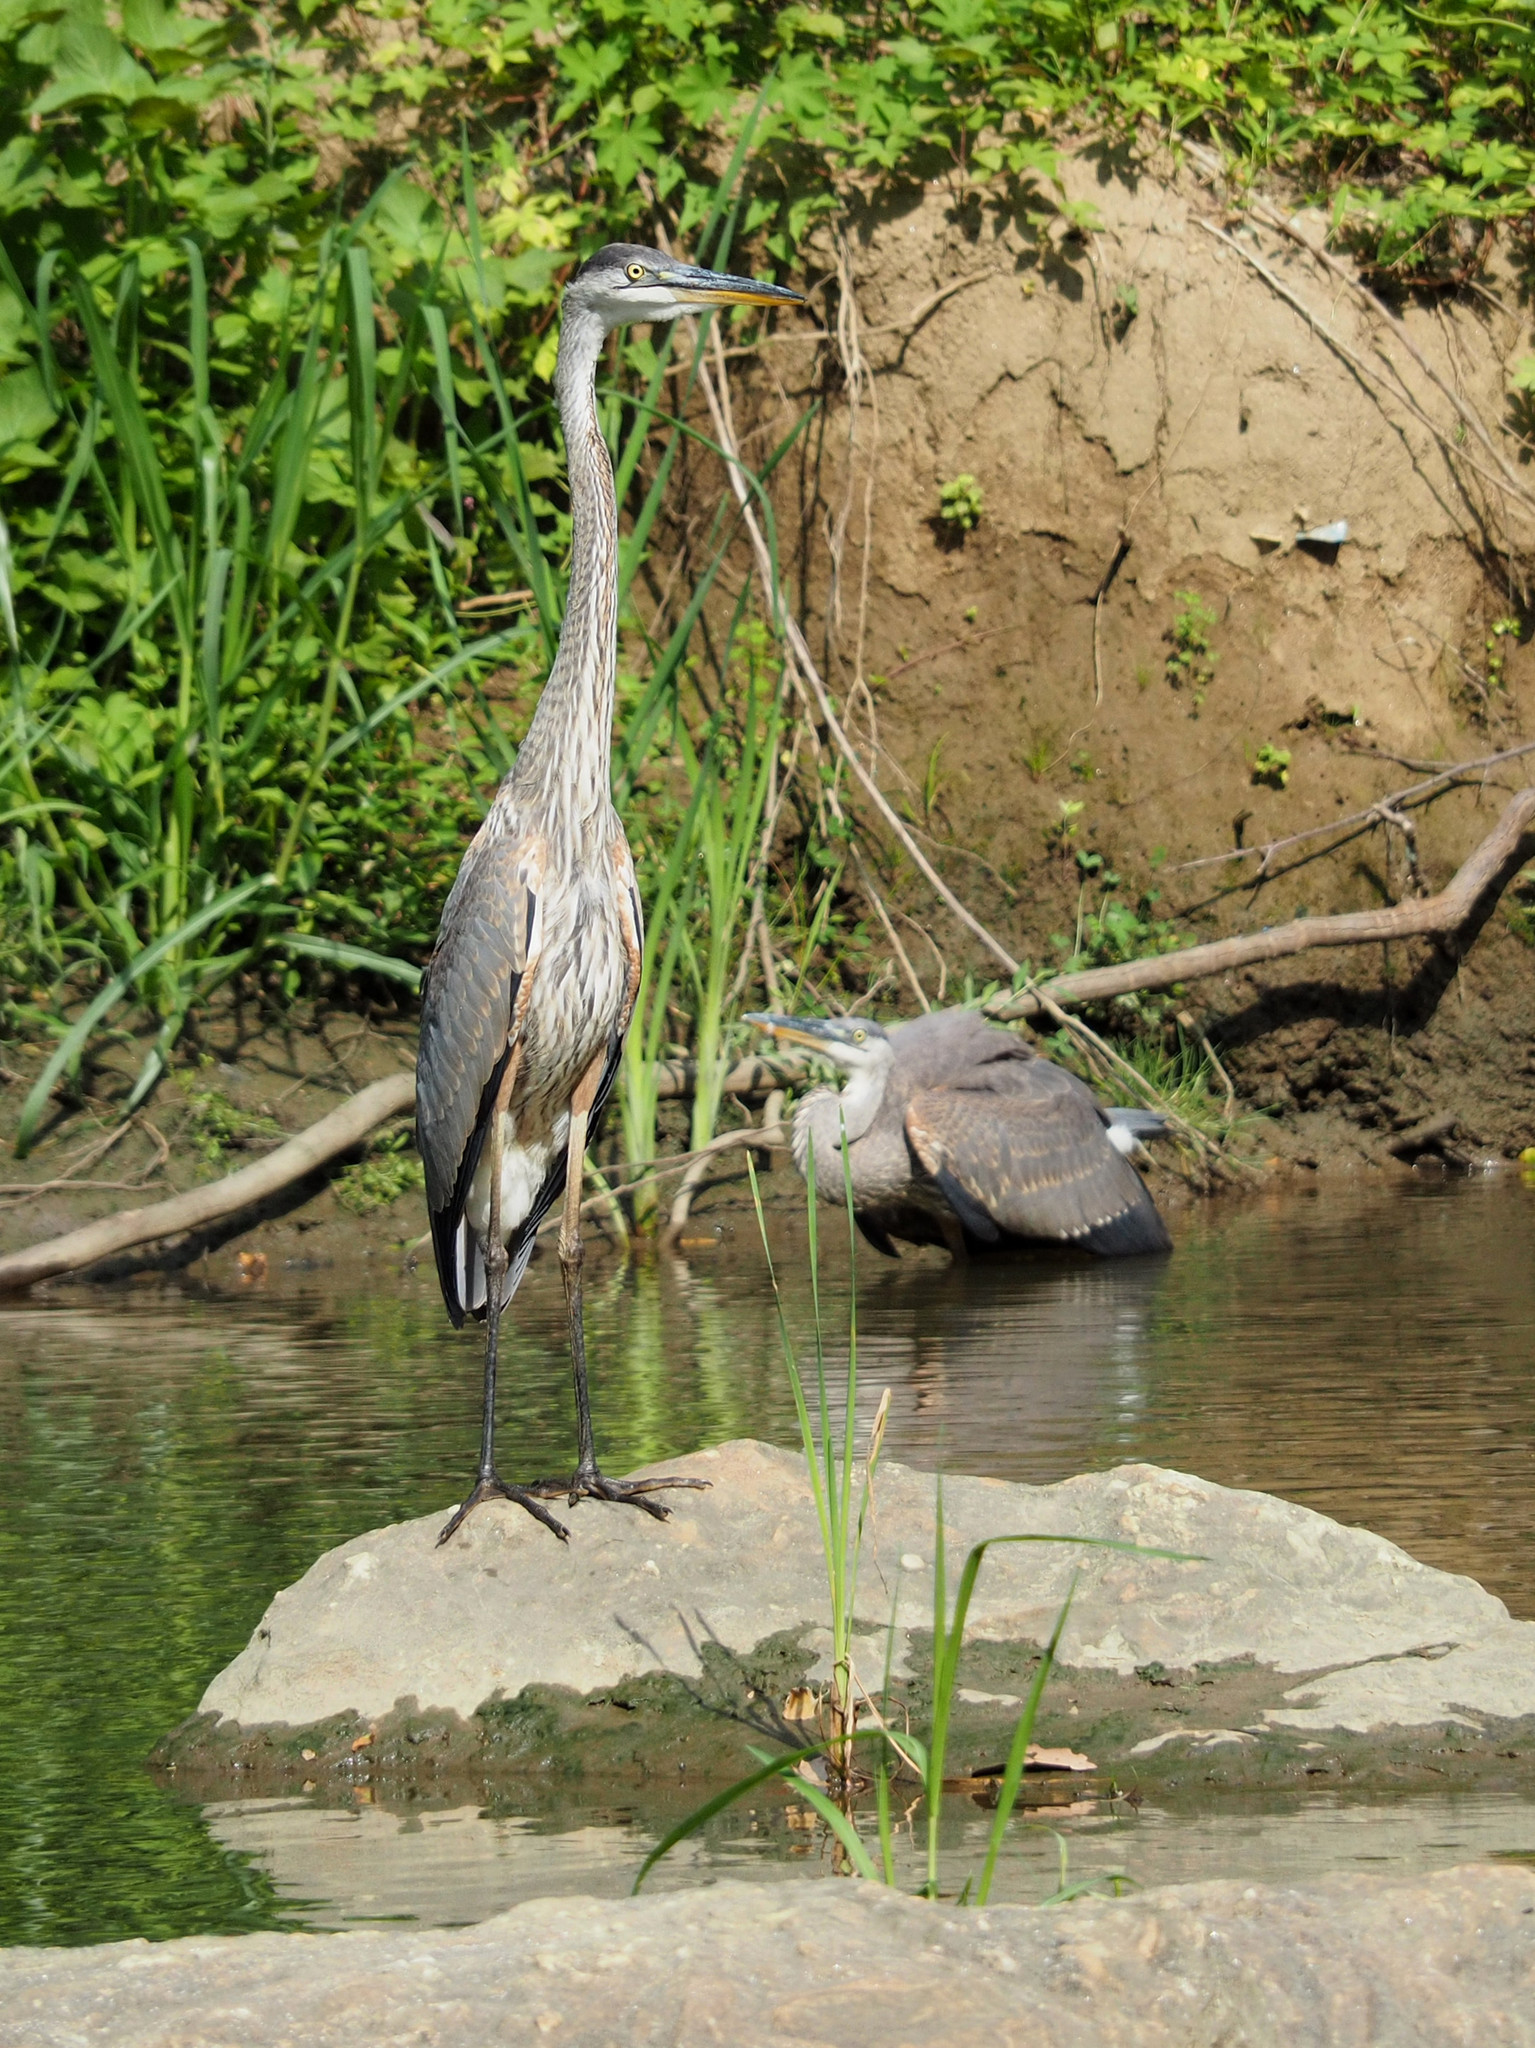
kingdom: Animalia
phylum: Chordata
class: Aves
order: Pelecaniformes
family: Ardeidae
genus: Ardea
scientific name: Ardea herodias
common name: Great blue heron
